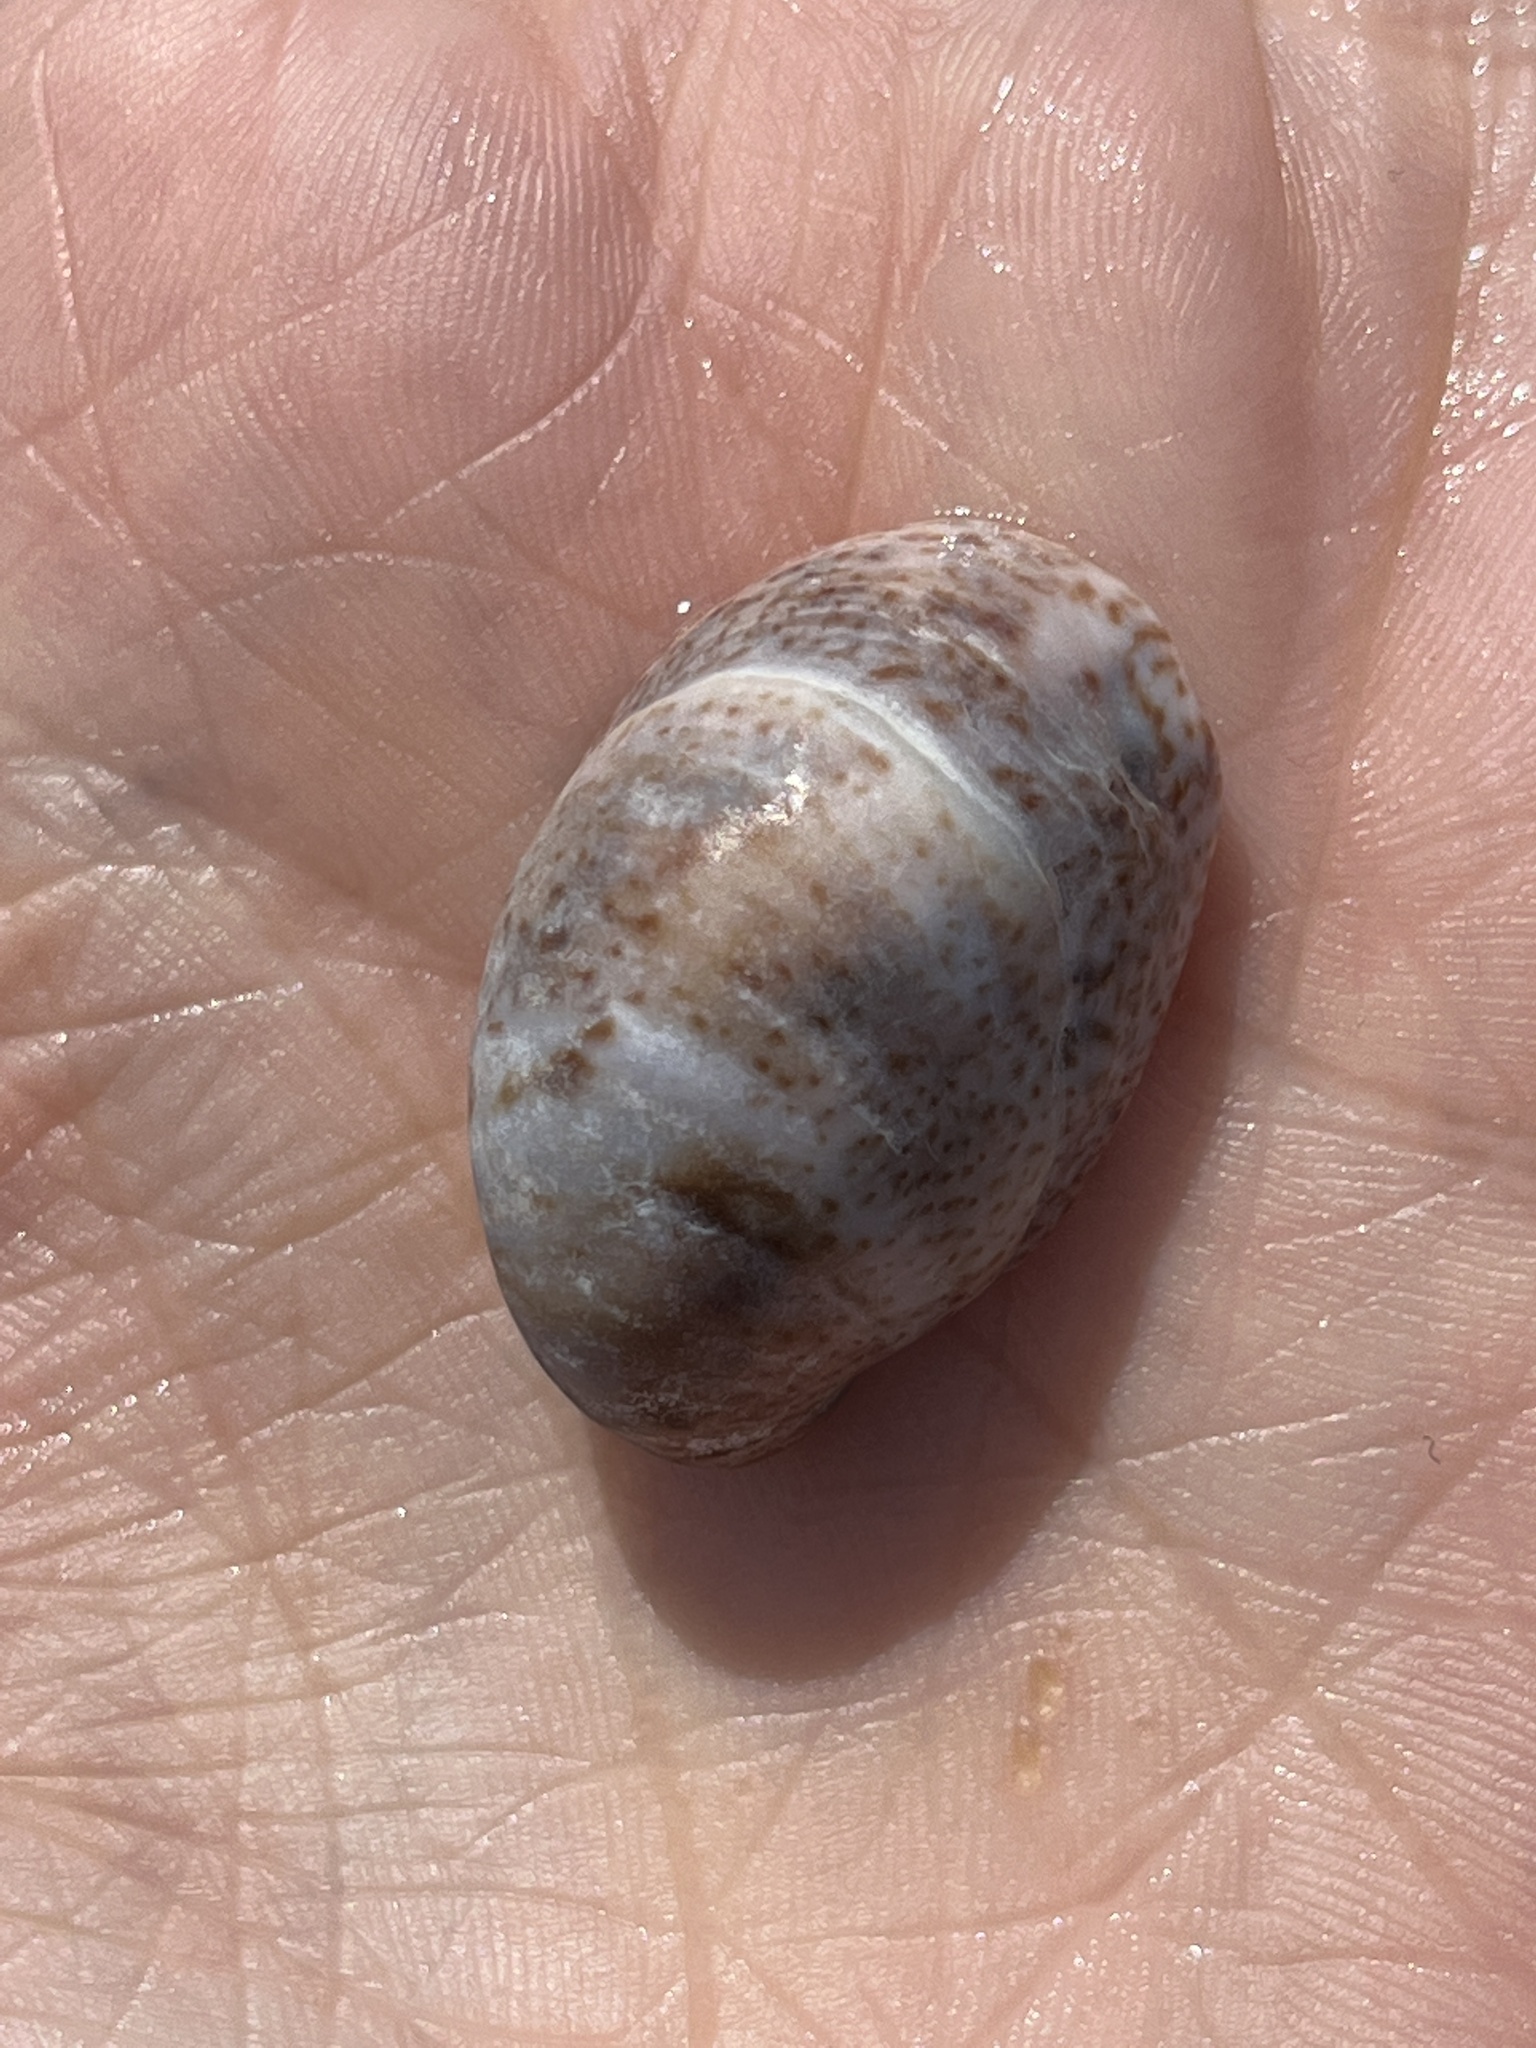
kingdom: Animalia
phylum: Mollusca
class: Gastropoda
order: Littorinimorpha
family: Calyptraeidae
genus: Crepidula
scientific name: Crepidula fornicata
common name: Slipper limpet
